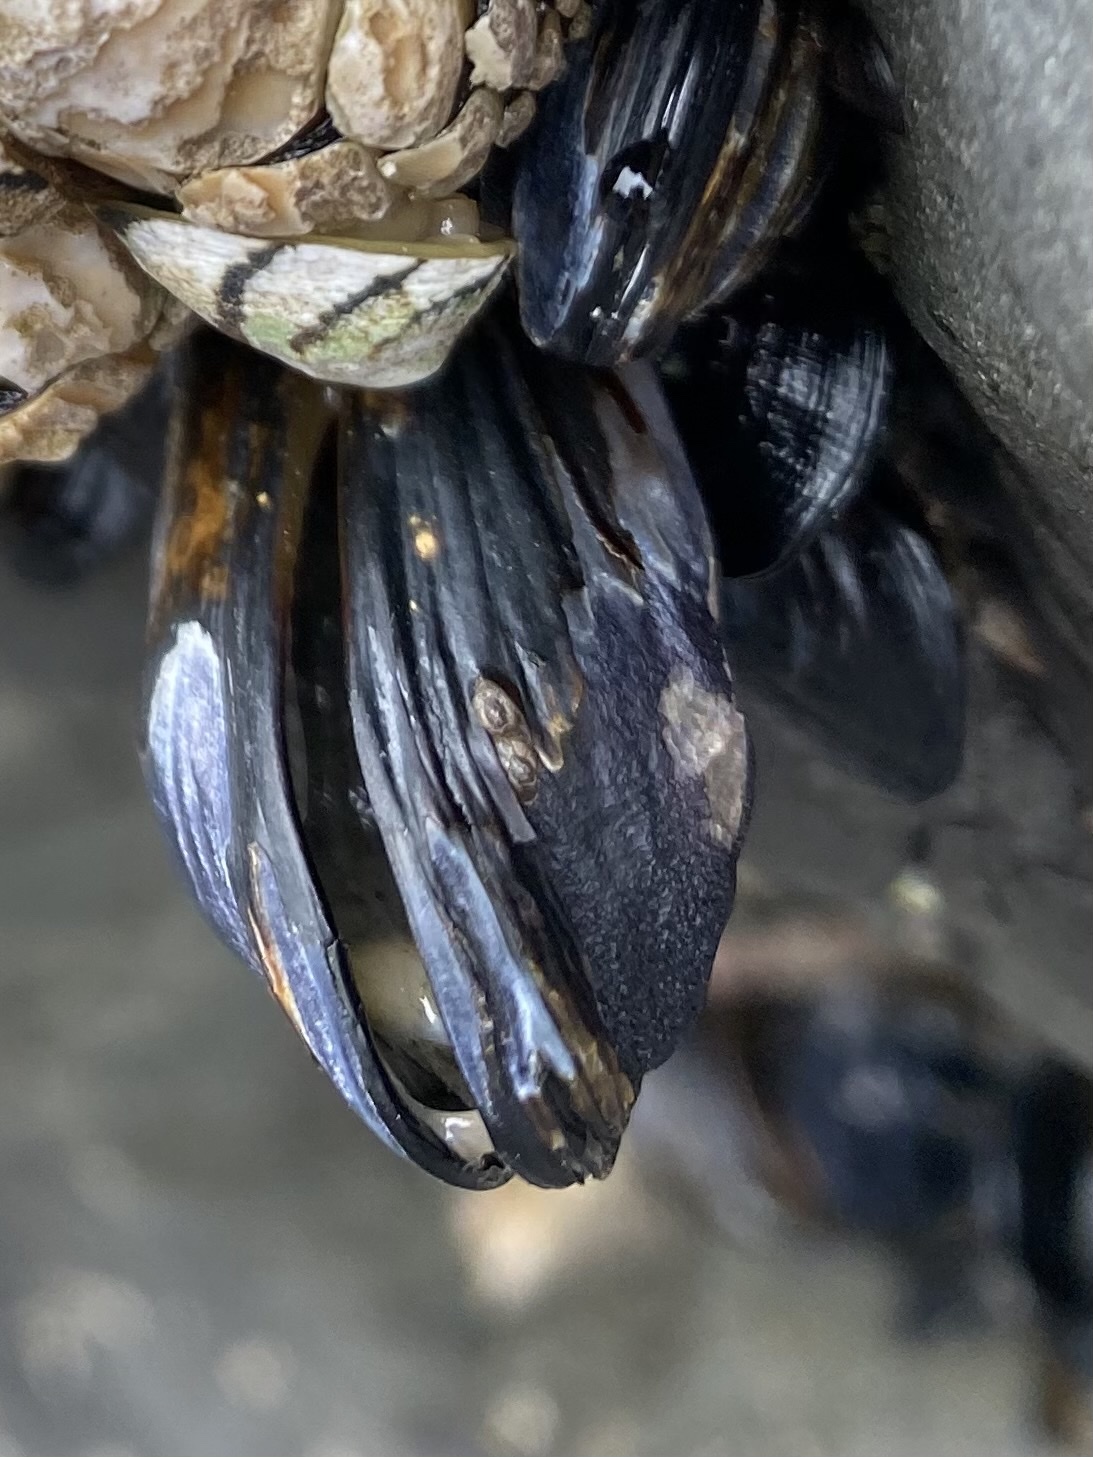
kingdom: Animalia
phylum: Mollusca
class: Bivalvia
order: Mytilida
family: Mytilidae
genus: Mytilus
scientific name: Mytilus californianus
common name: California mussel
